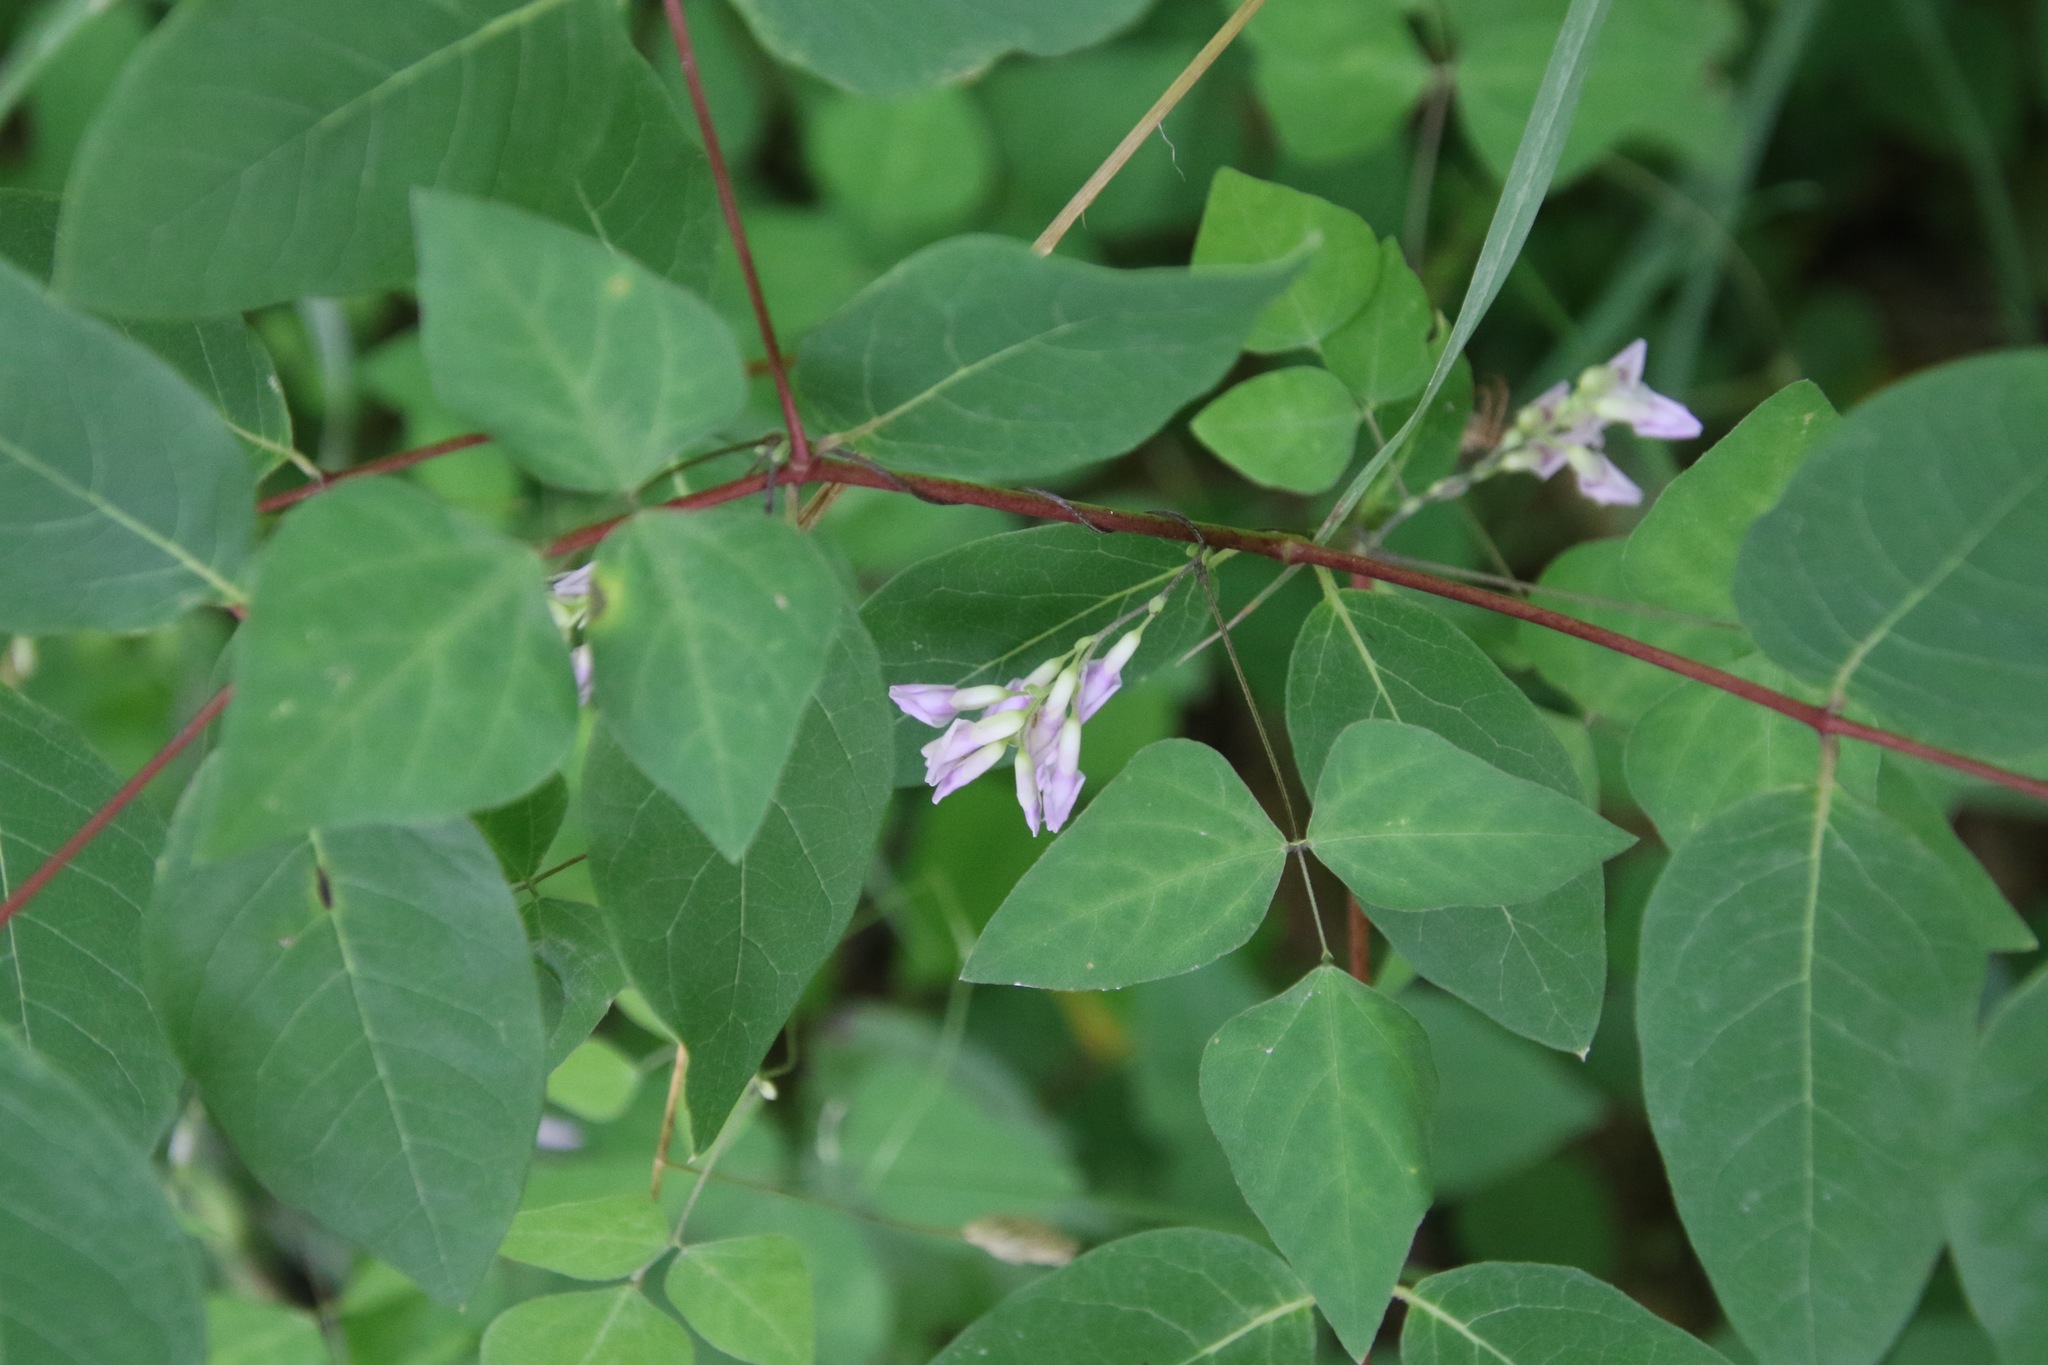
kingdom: Plantae
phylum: Tracheophyta
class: Magnoliopsida
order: Fabales
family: Fabaceae
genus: Amphicarpaea
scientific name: Amphicarpaea bracteata
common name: American hog peanut
